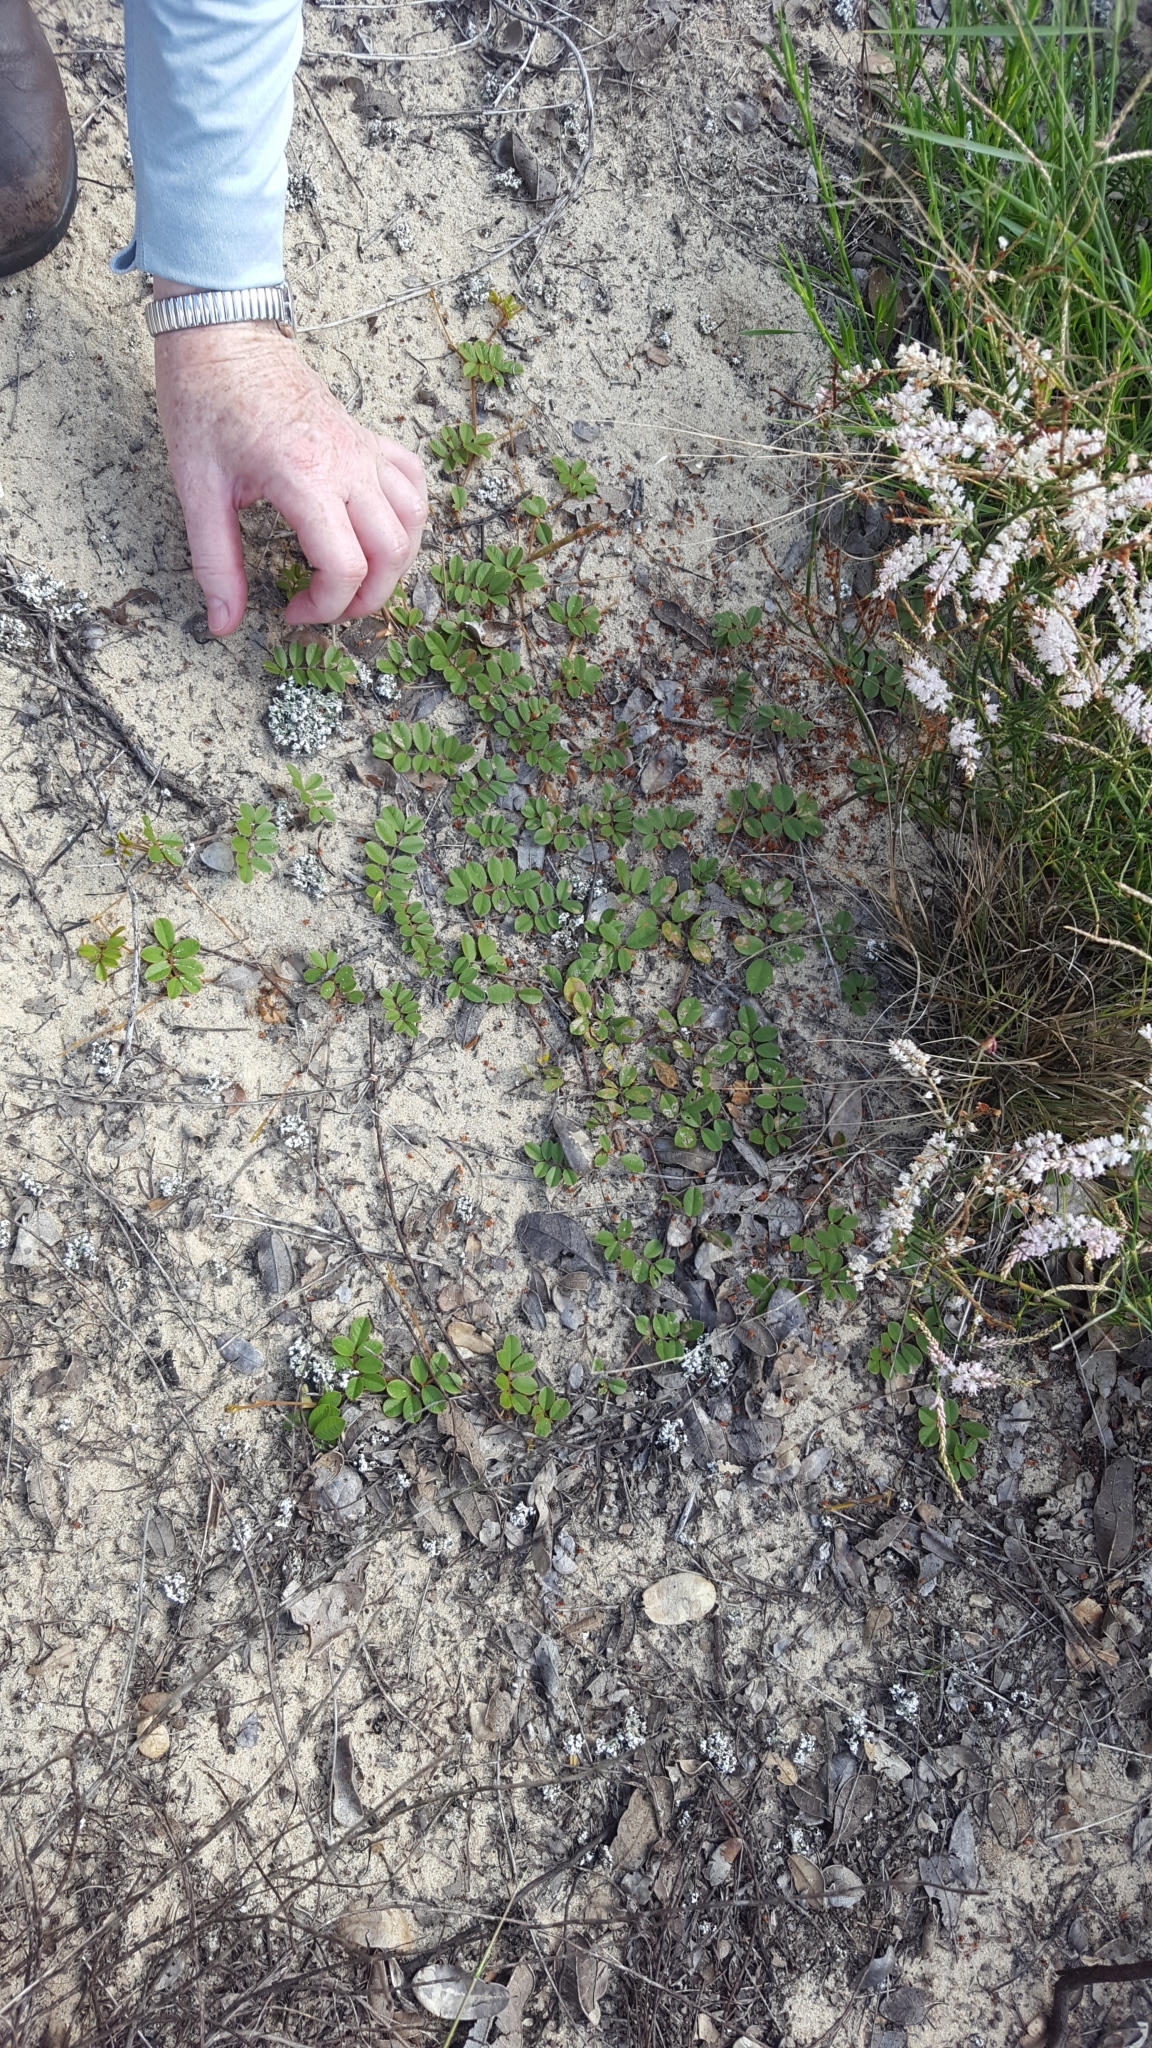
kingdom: Plantae
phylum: Tracheophyta
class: Magnoliopsida
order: Fabales
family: Fabaceae
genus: Tephrosia
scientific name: Tephrosia mysteriosa
